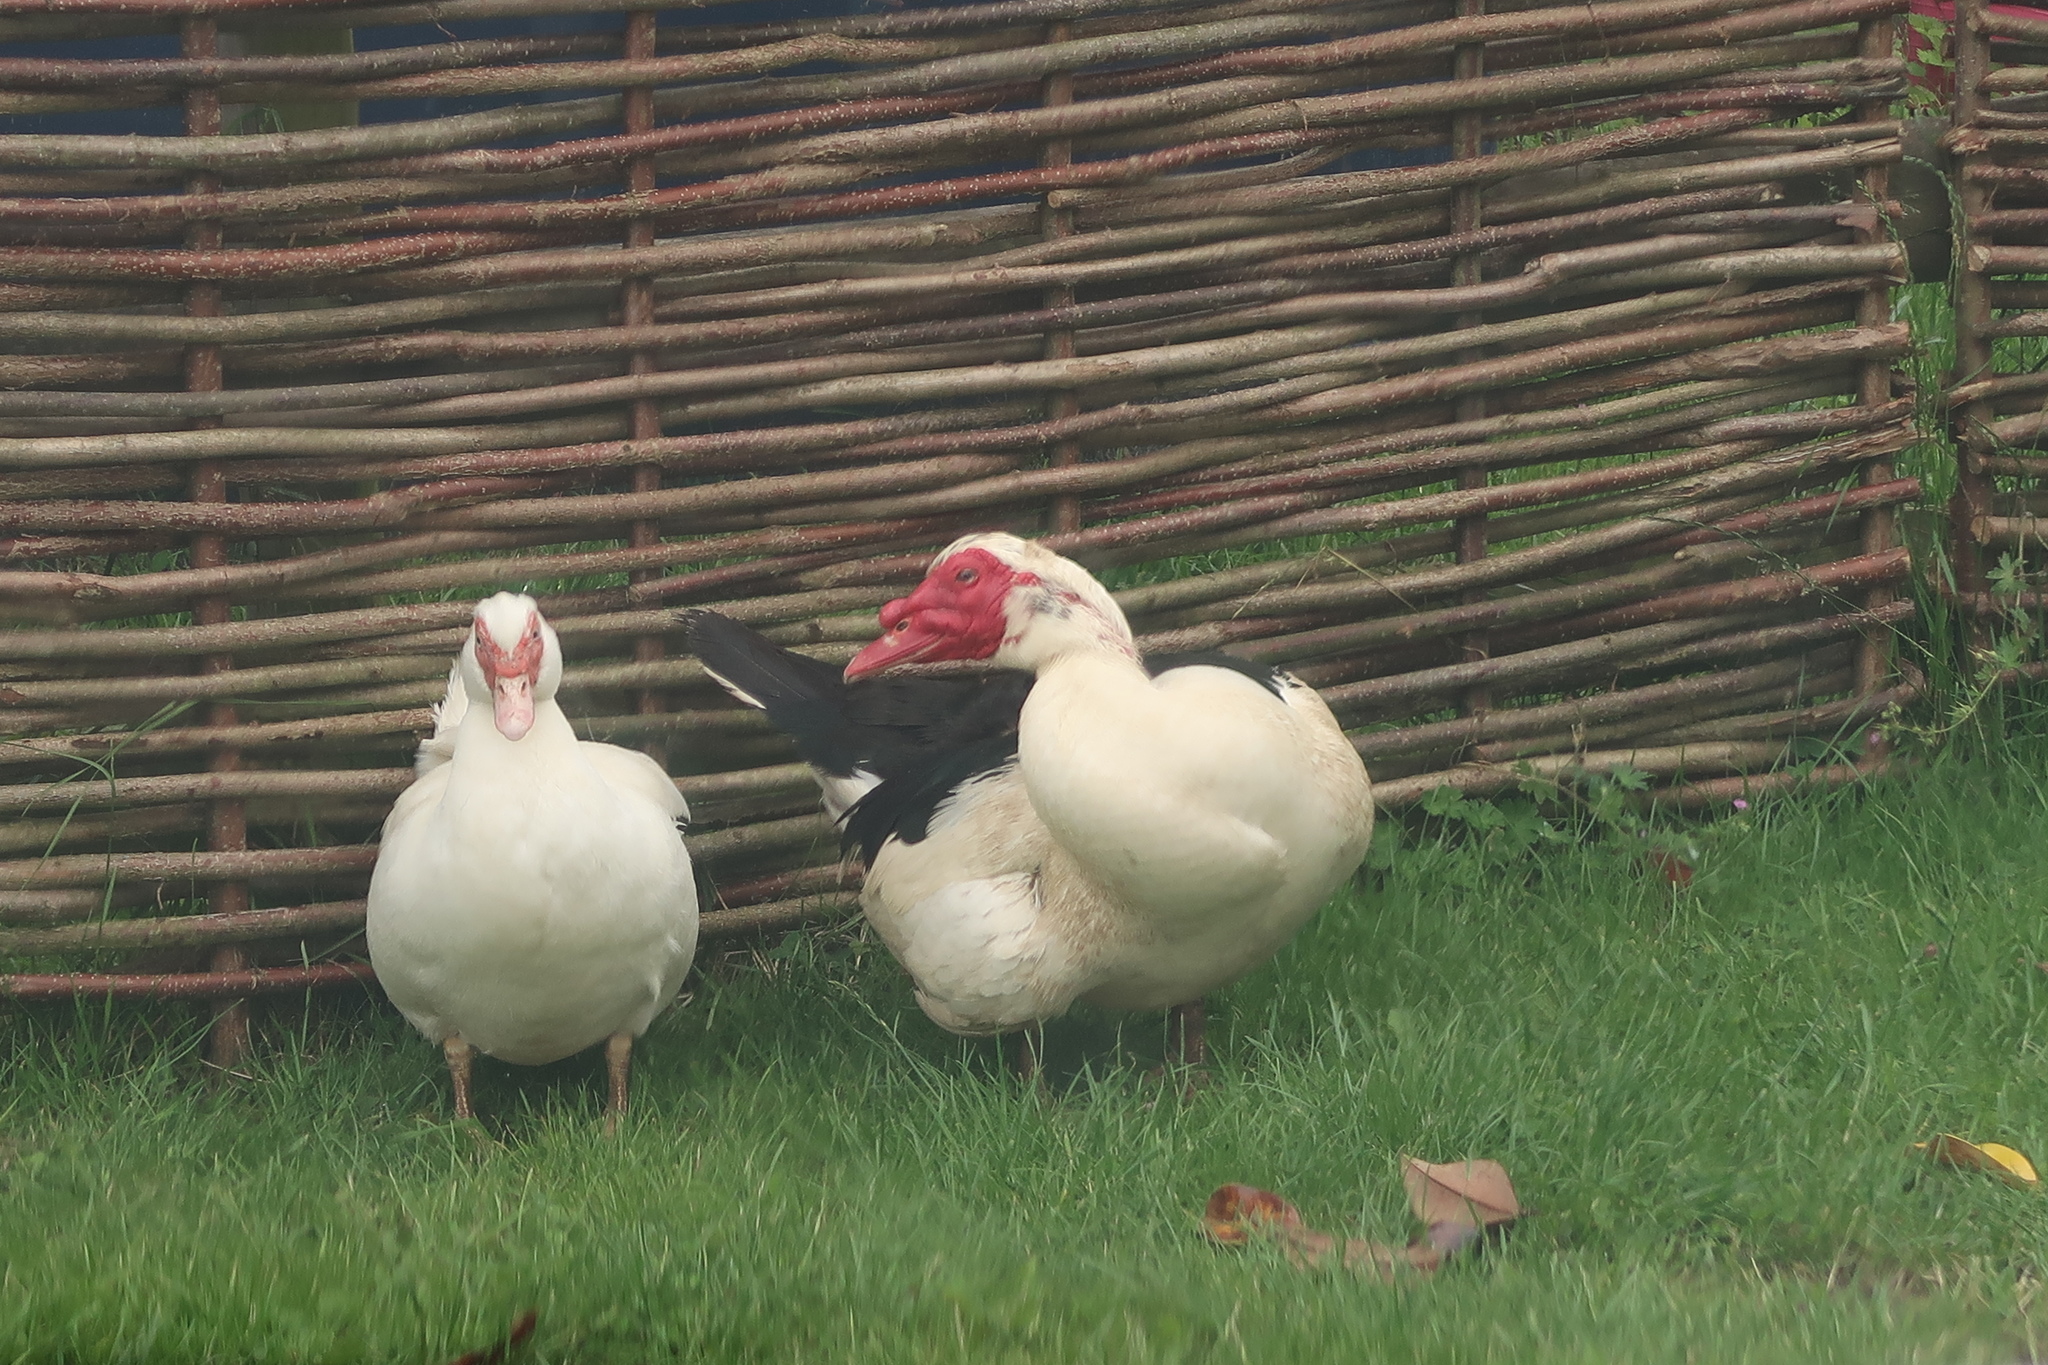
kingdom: Animalia
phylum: Chordata
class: Aves
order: Anseriformes
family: Anatidae
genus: Cairina
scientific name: Cairina moschata
